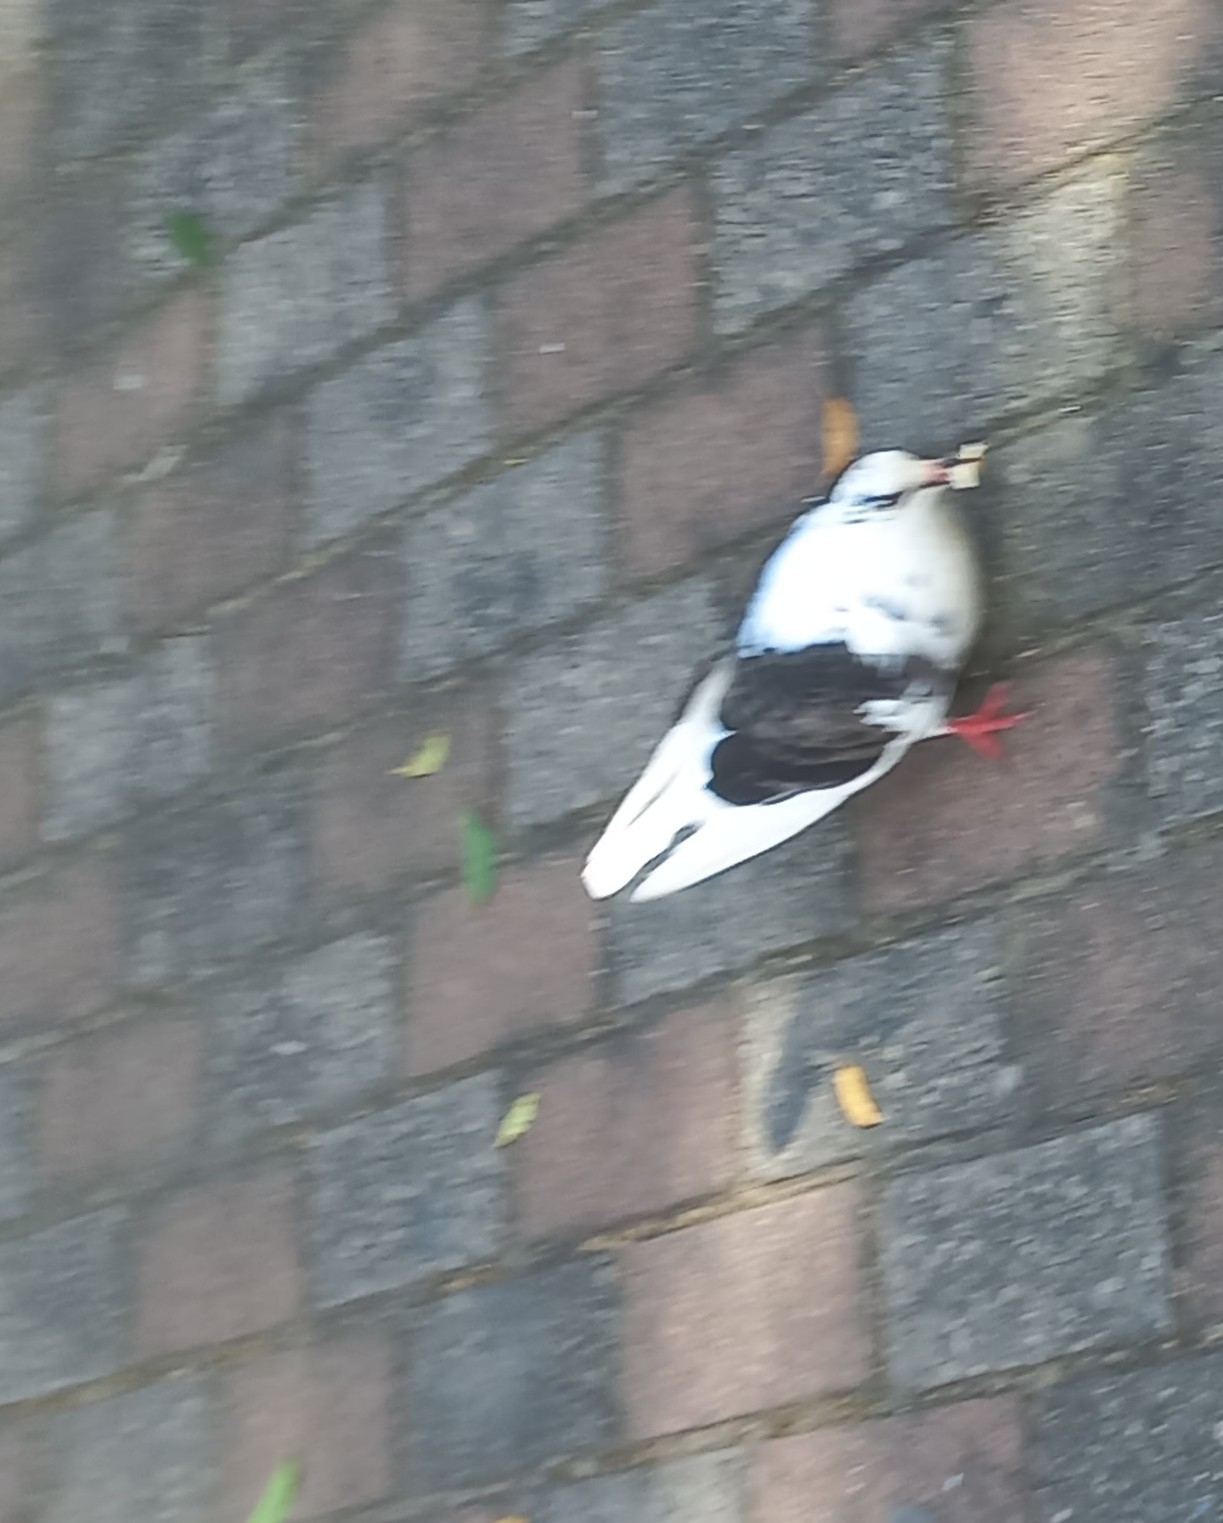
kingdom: Animalia
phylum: Chordata
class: Aves
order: Columbiformes
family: Columbidae
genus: Columba
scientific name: Columba livia
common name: Rock pigeon
